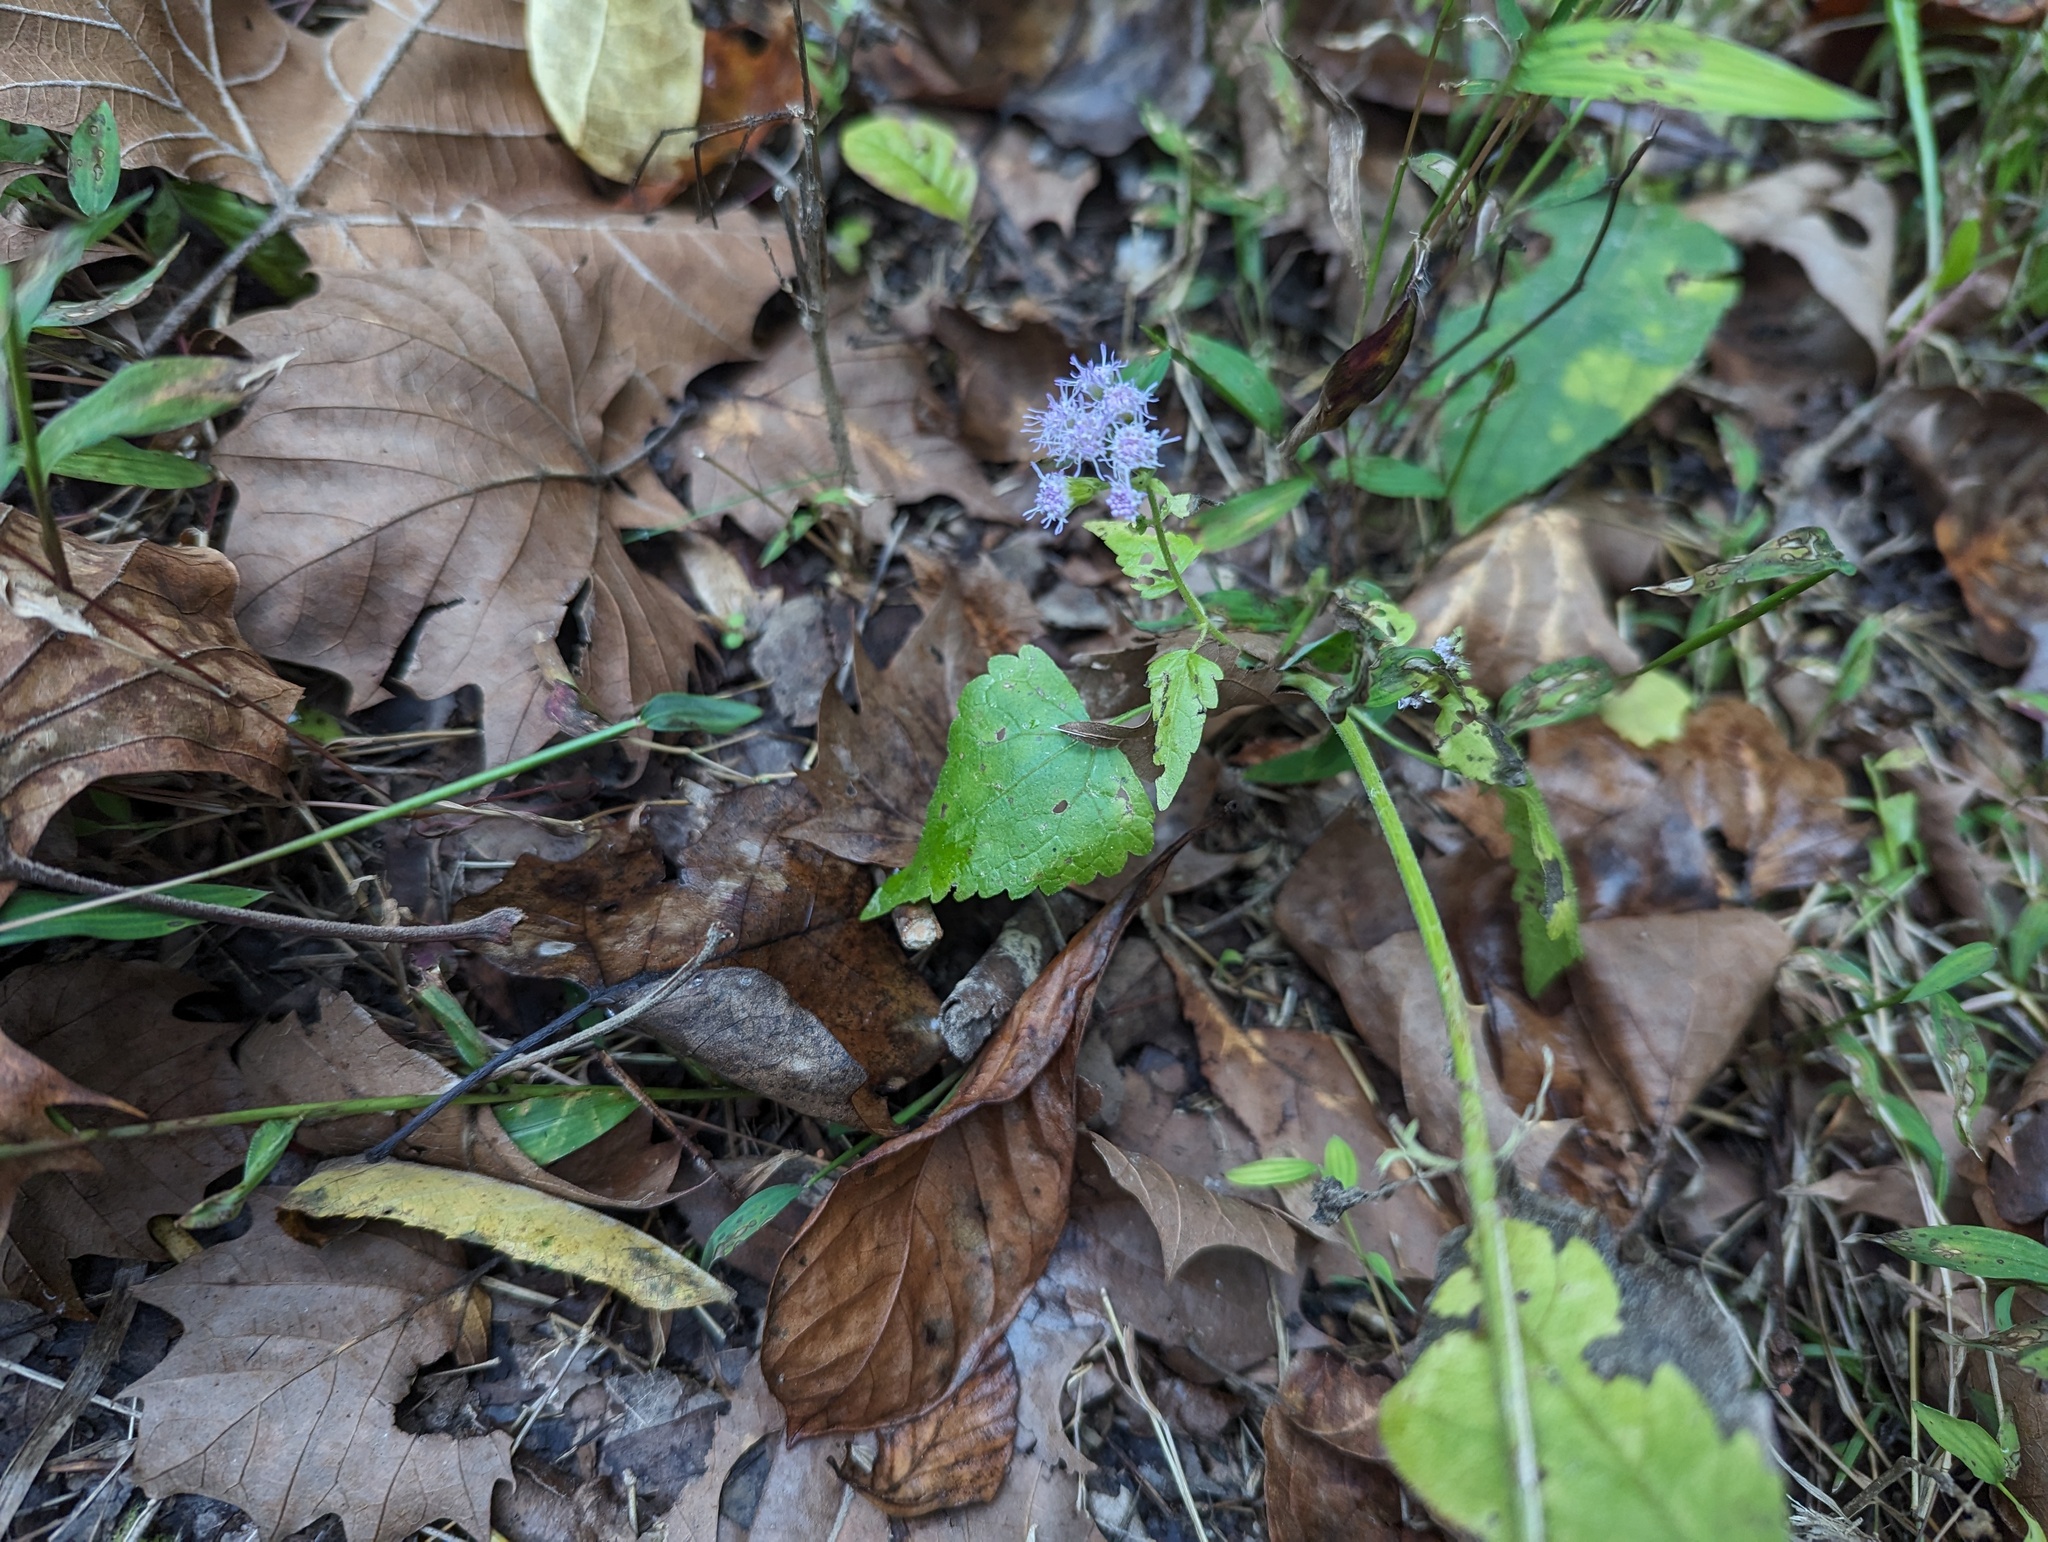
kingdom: Plantae
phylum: Tracheophyta
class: Magnoliopsida
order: Asterales
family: Asteraceae
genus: Fleischmannia
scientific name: Fleischmannia incarnata
